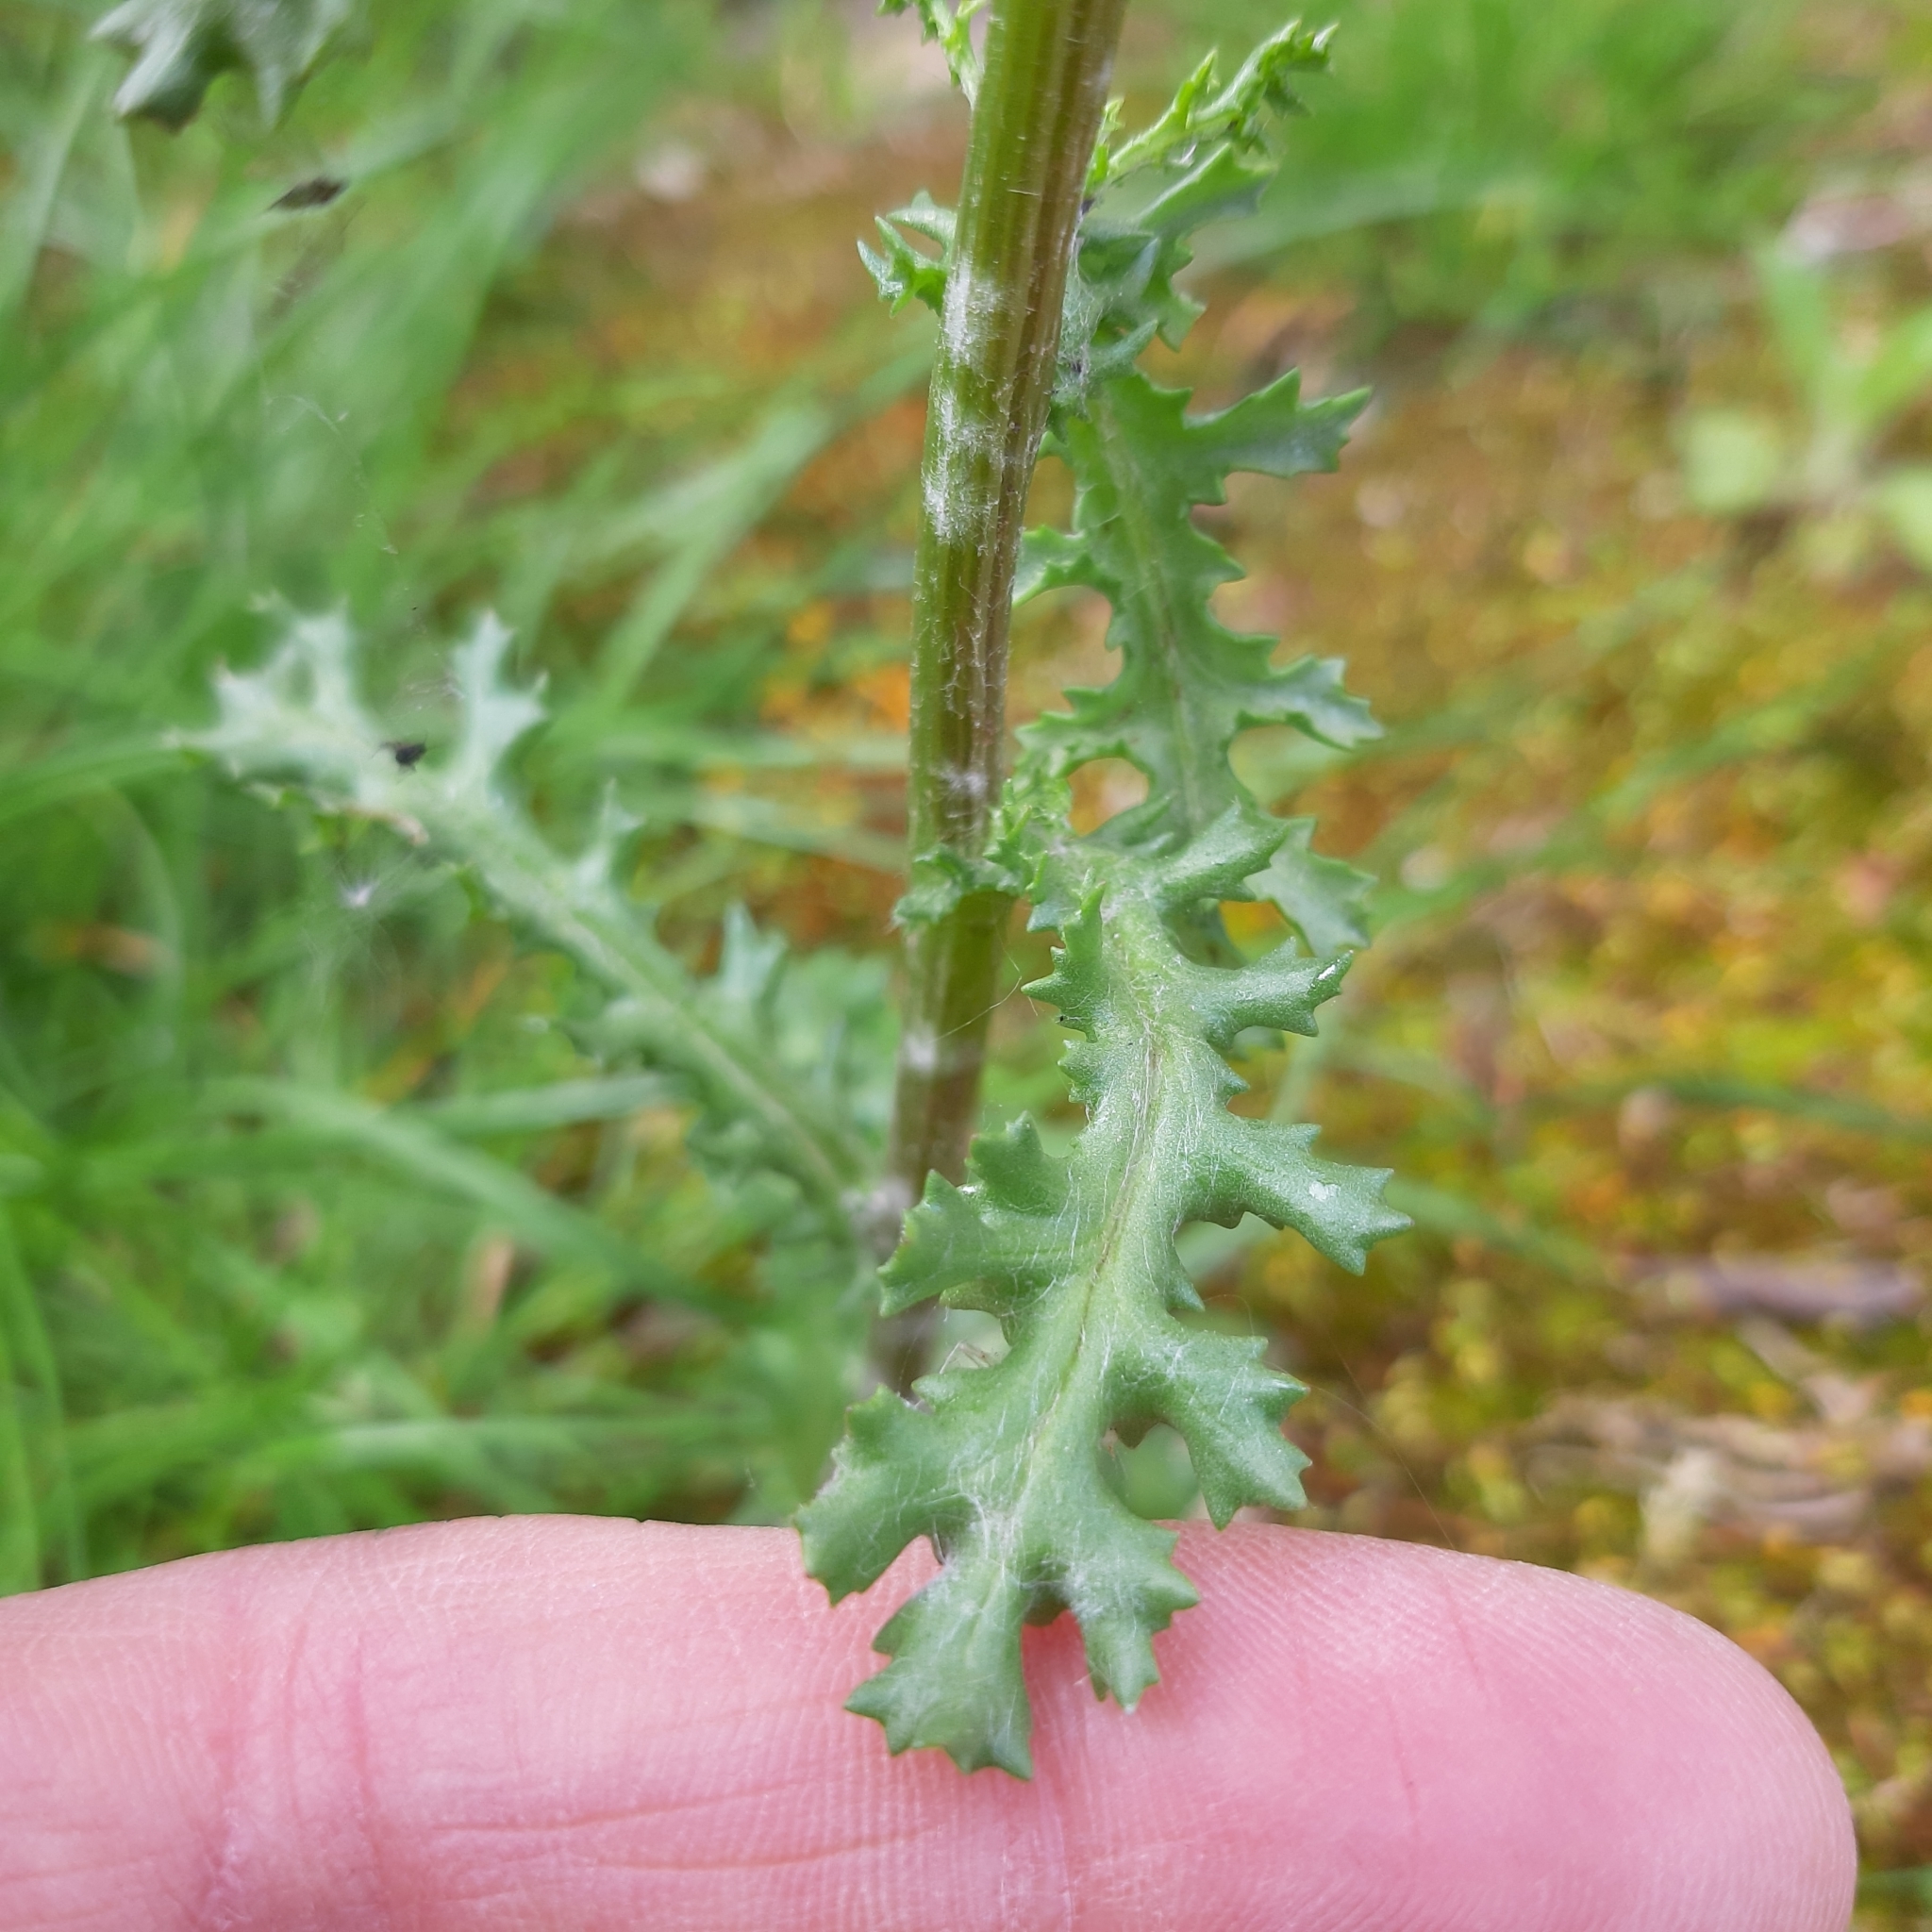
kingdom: Plantae
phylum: Tracheophyta
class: Magnoliopsida
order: Asterales
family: Asteraceae
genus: Senecio
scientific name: Senecio vulgaris
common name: Old-man-in-the-spring
